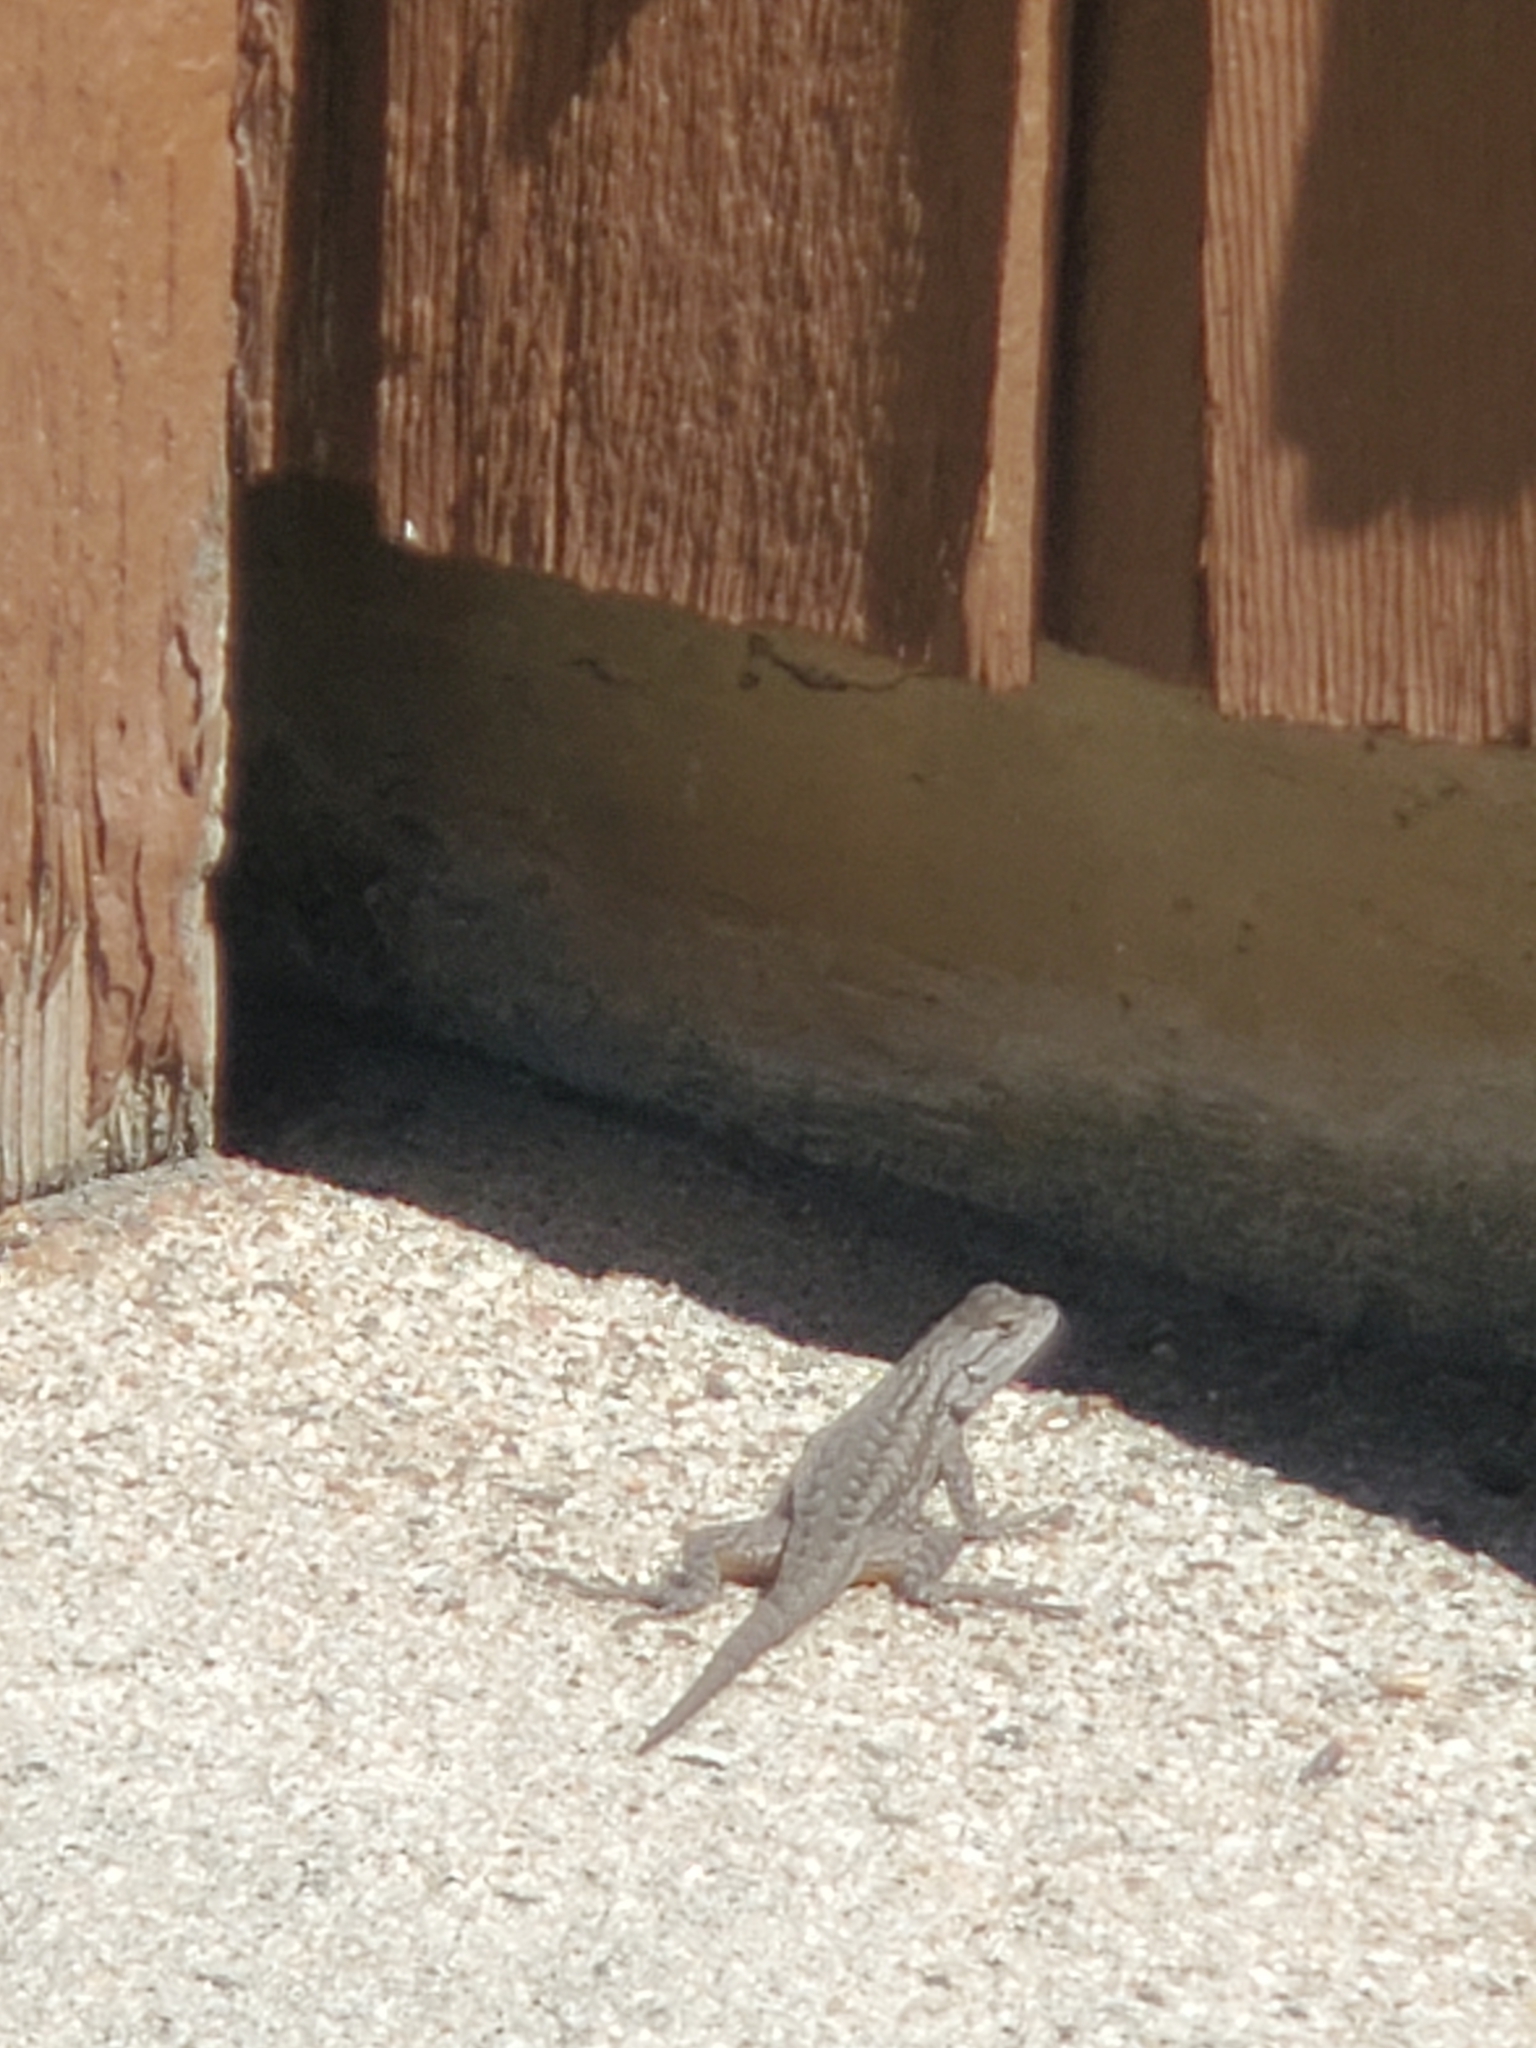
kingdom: Animalia
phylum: Chordata
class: Squamata
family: Phrynosomatidae
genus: Sceloporus
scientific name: Sceloporus occidentalis
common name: Western fence lizard
